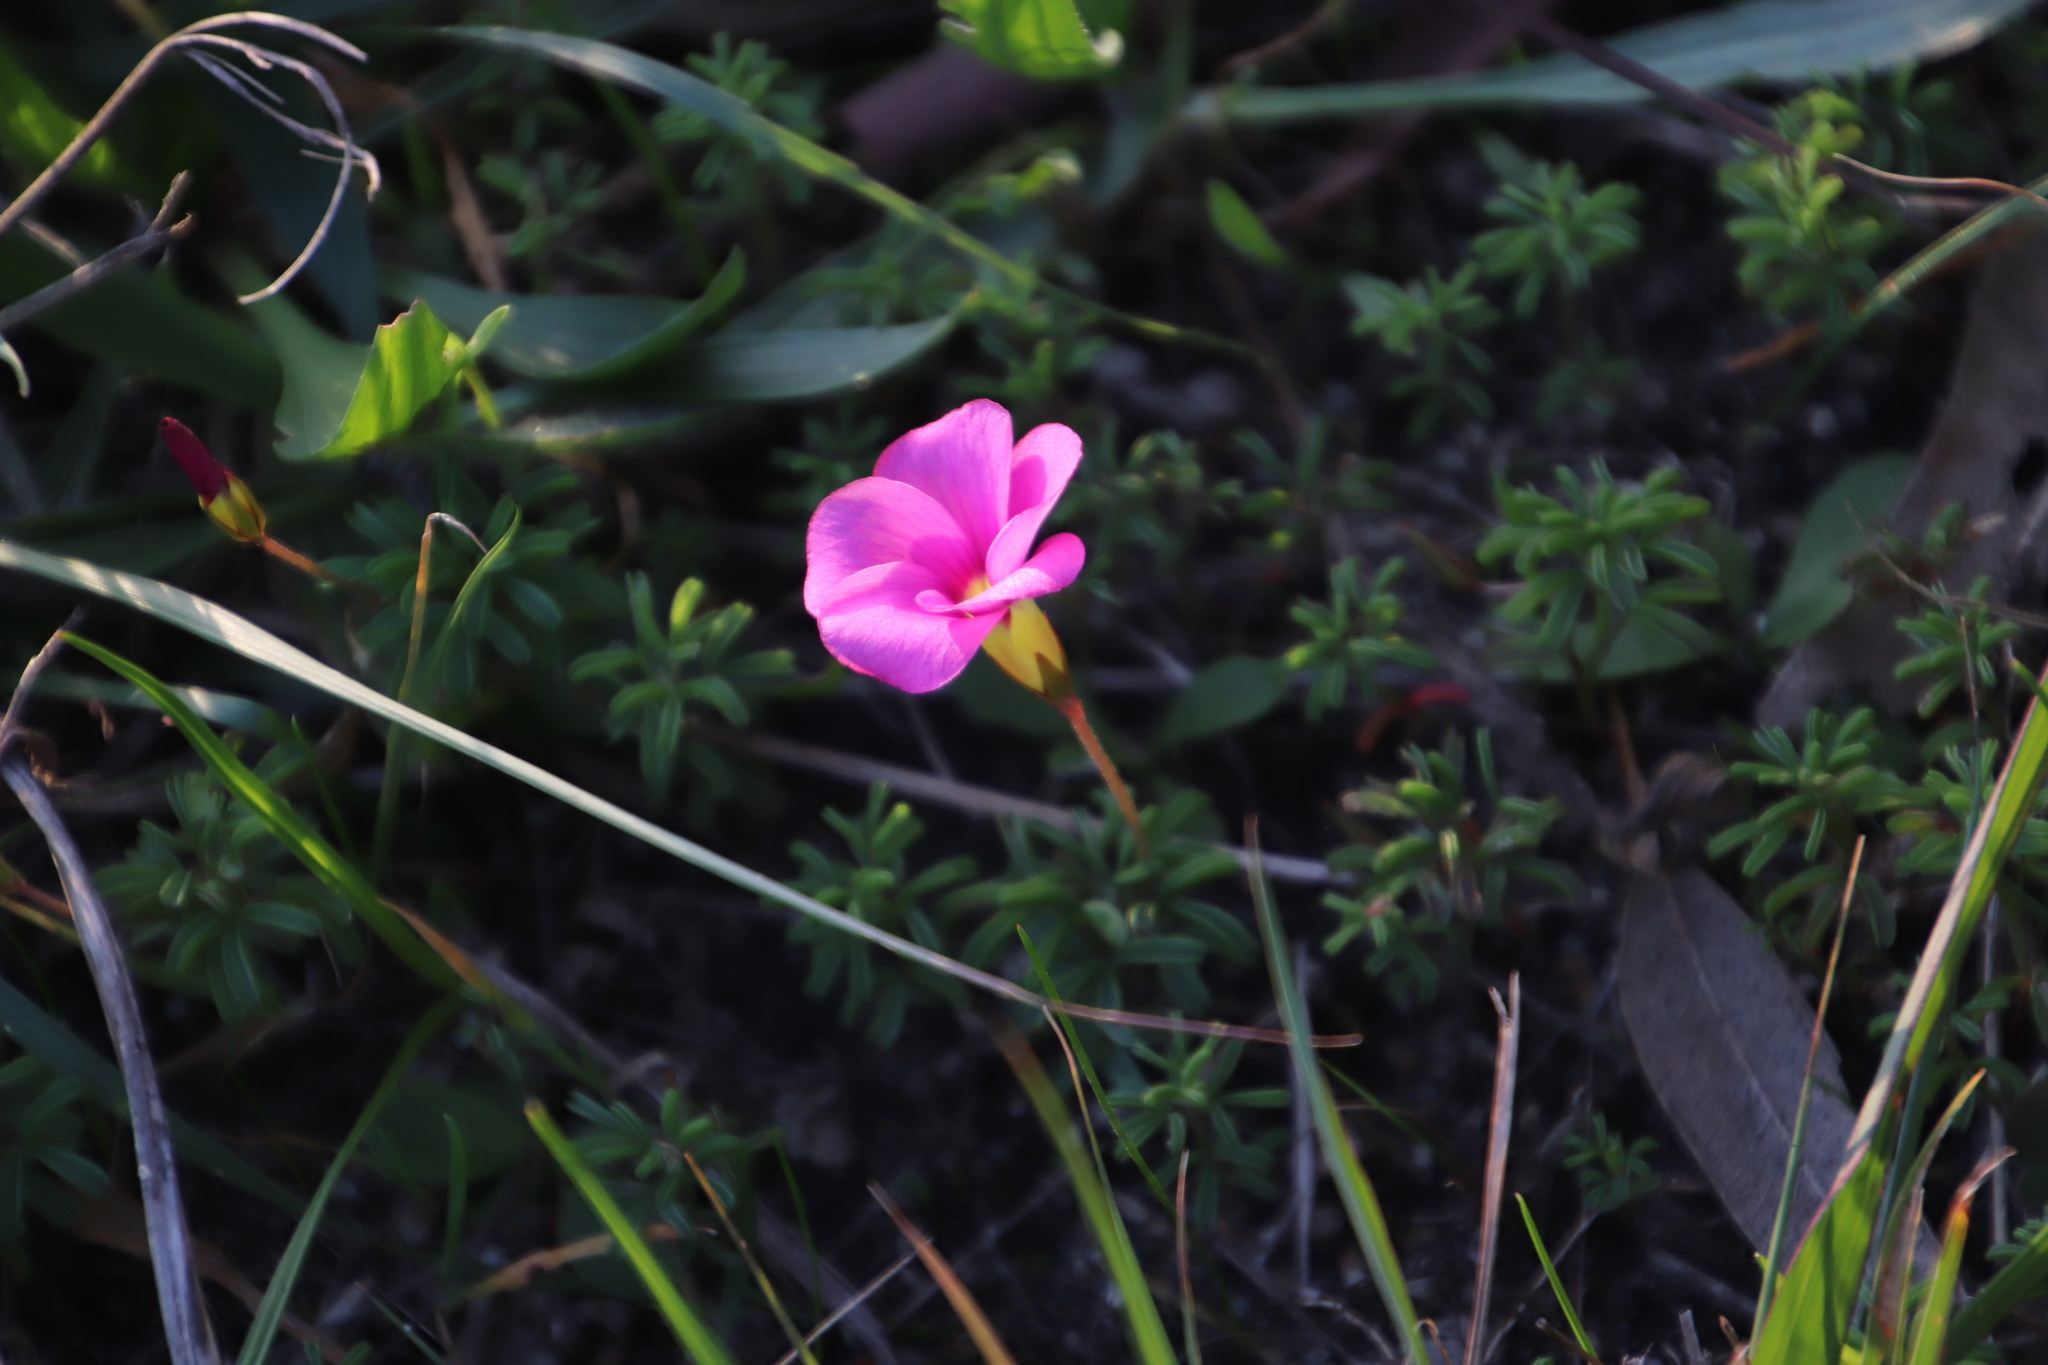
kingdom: Plantae
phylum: Tracheophyta
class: Magnoliopsida
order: Oxalidales
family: Oxalidaceae
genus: Oxalis
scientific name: Oxalis glabra
